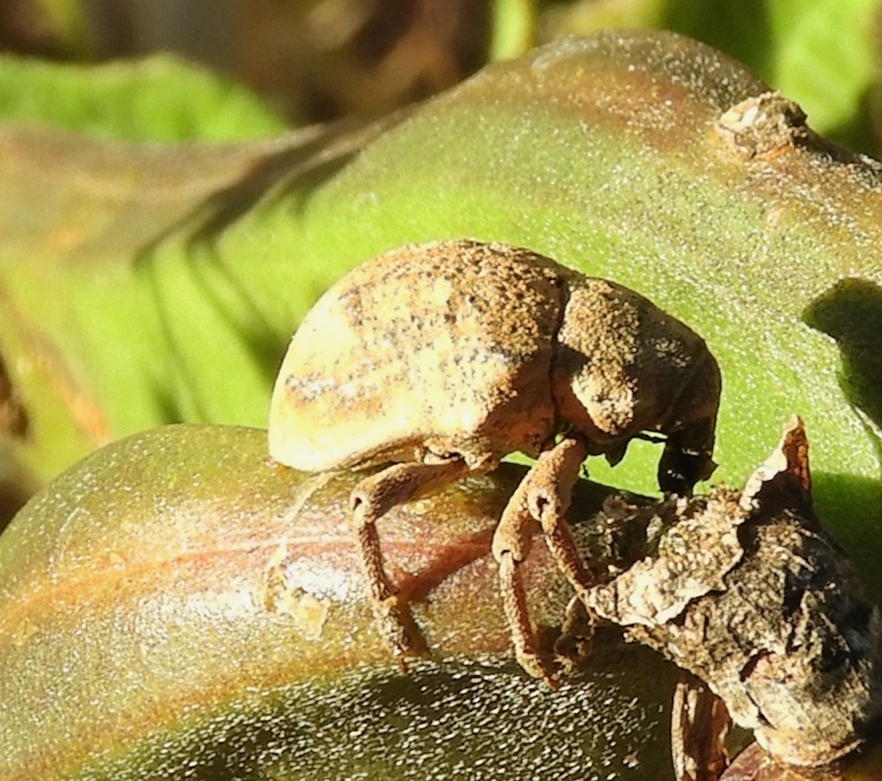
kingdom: Animalia
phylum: Arthropoda
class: Insecta
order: Coleoptera
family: Curculionidae
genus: Sternechus
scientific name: Sternechus
